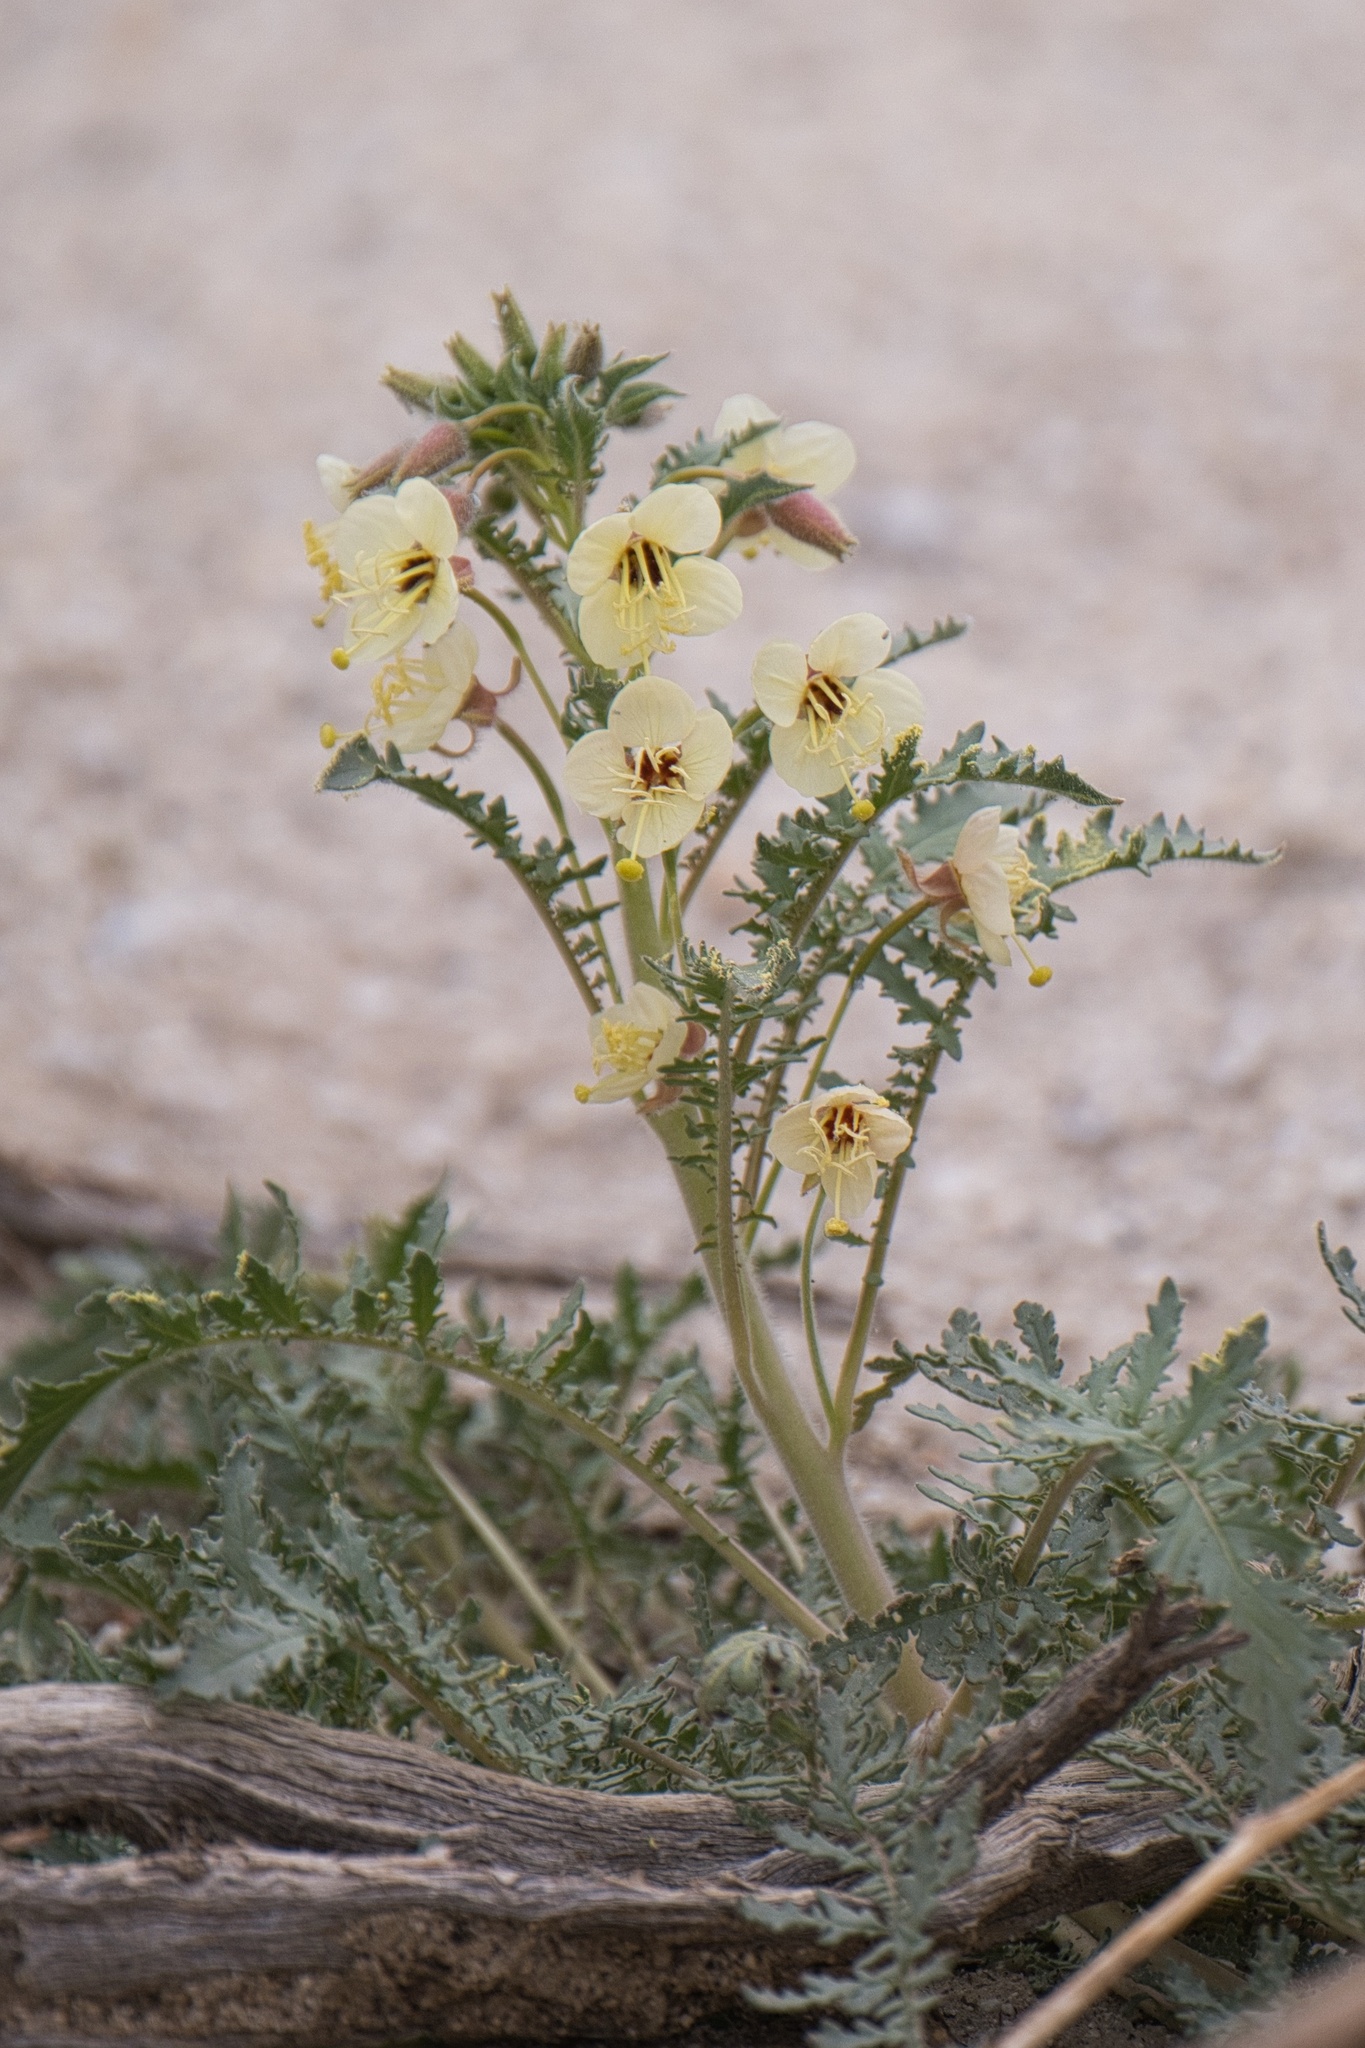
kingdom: Plantae
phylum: Tracheophyta
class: Magnoliopsida
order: Myrtales
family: Onagraceae
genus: Chylismia
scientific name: Chylismia claviformis
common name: Browneyes
